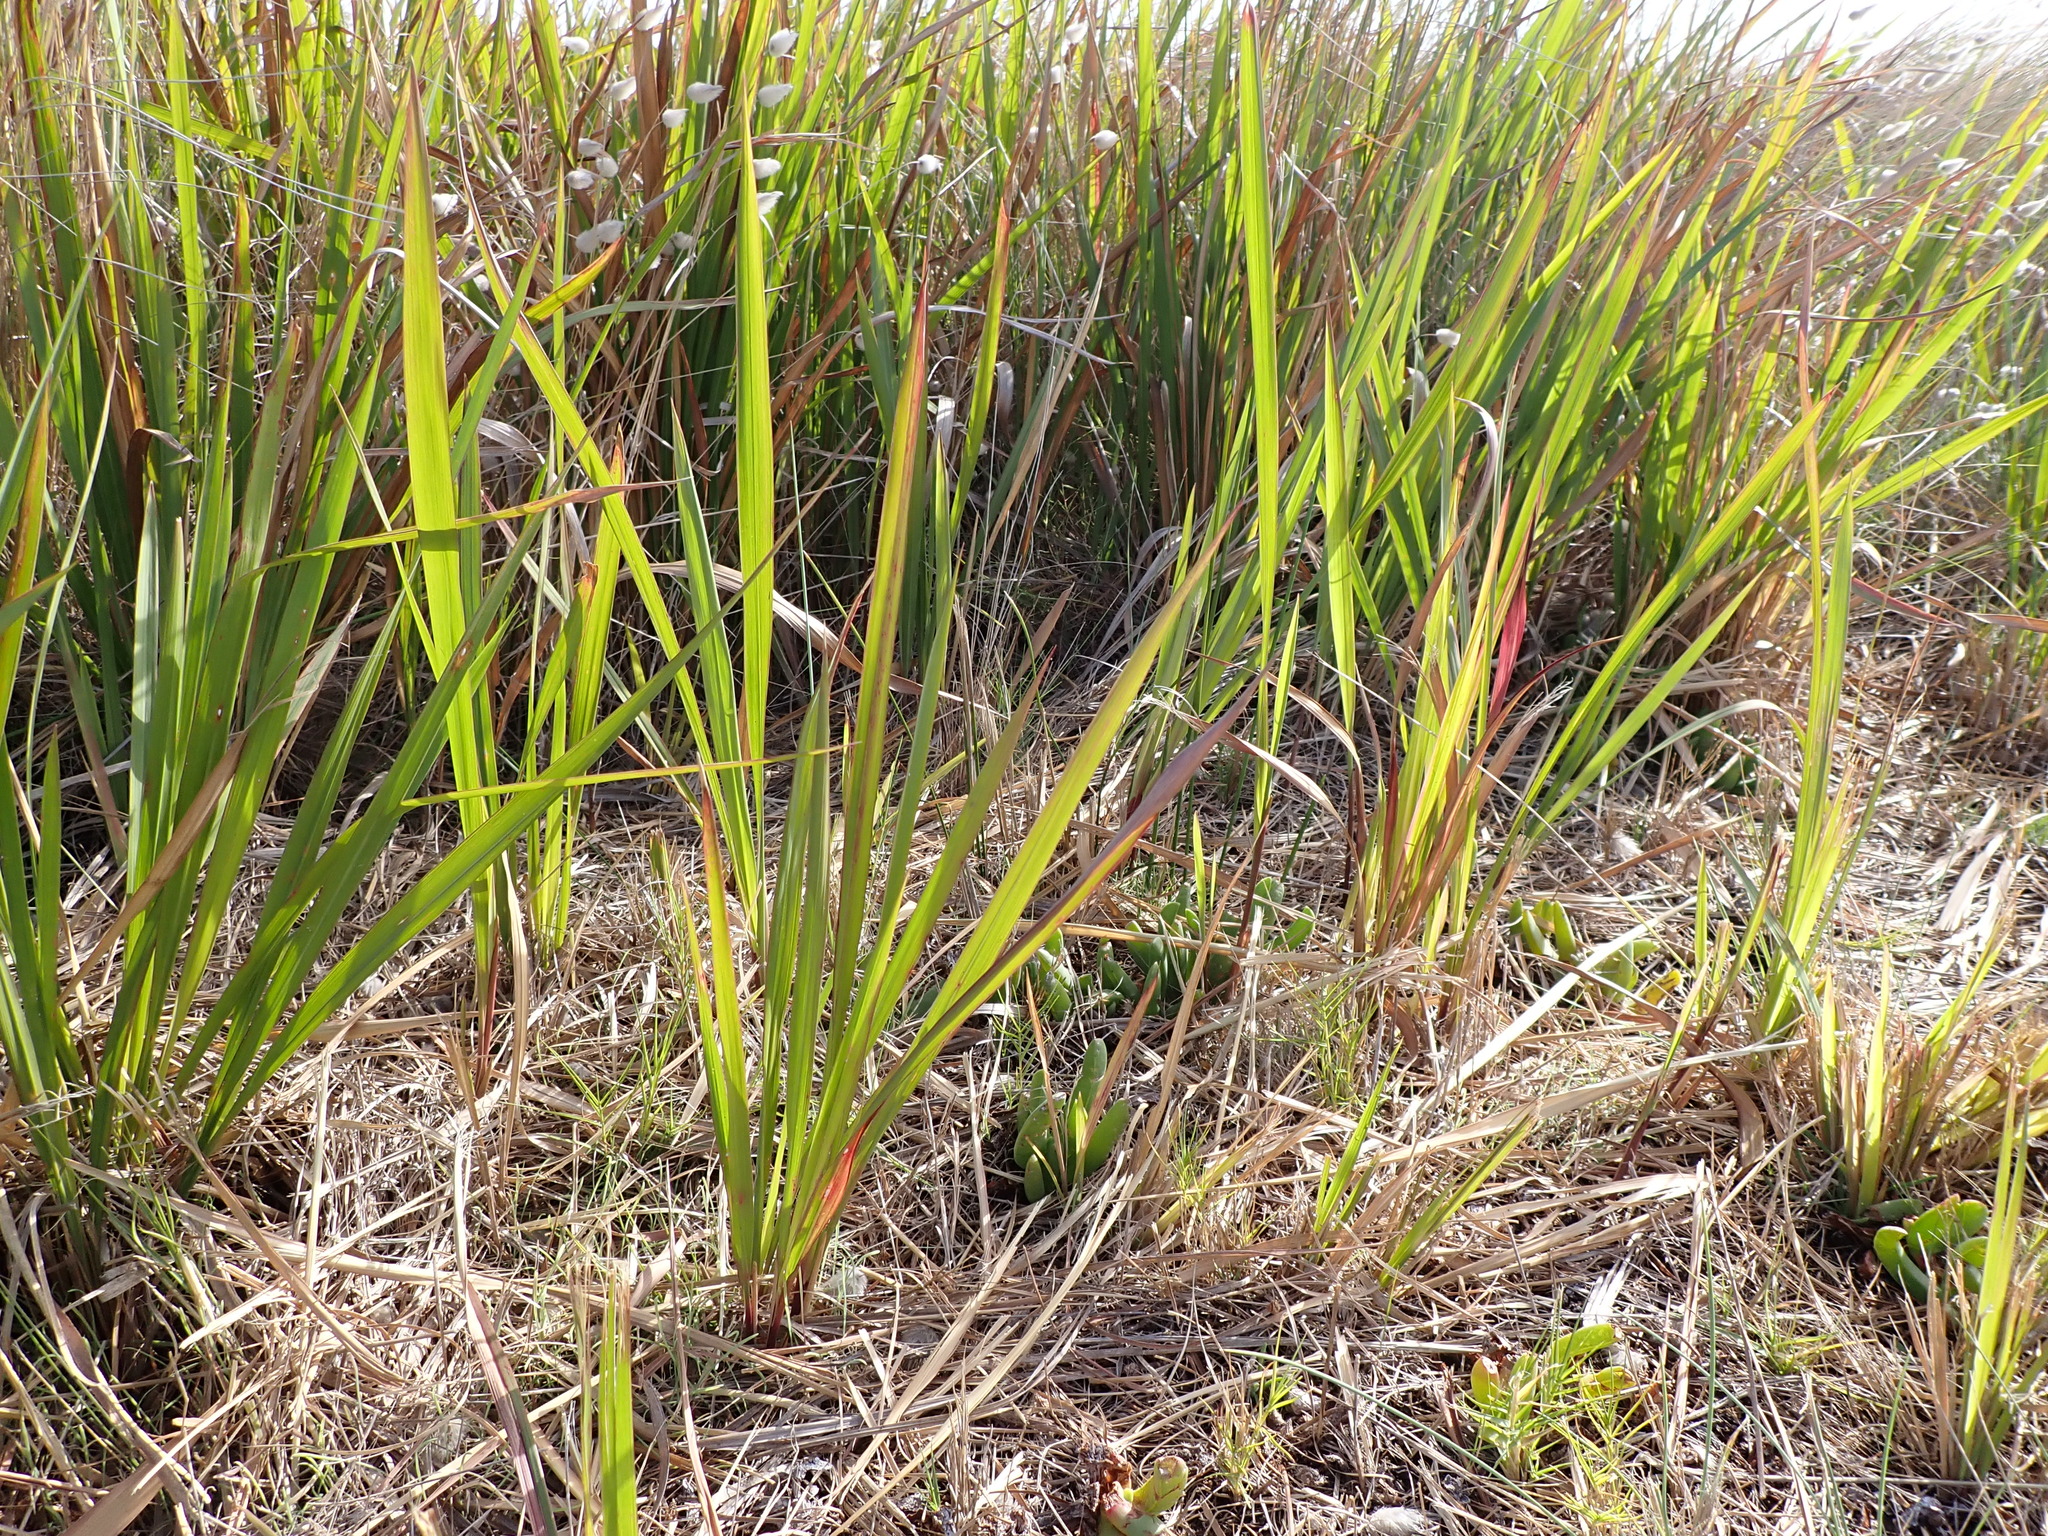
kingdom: Plantae
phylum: Tracheophyta
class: Liliopsida
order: Poales
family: Poaceae
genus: Imperata
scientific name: Imperata cylindrica
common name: Cogongrass
